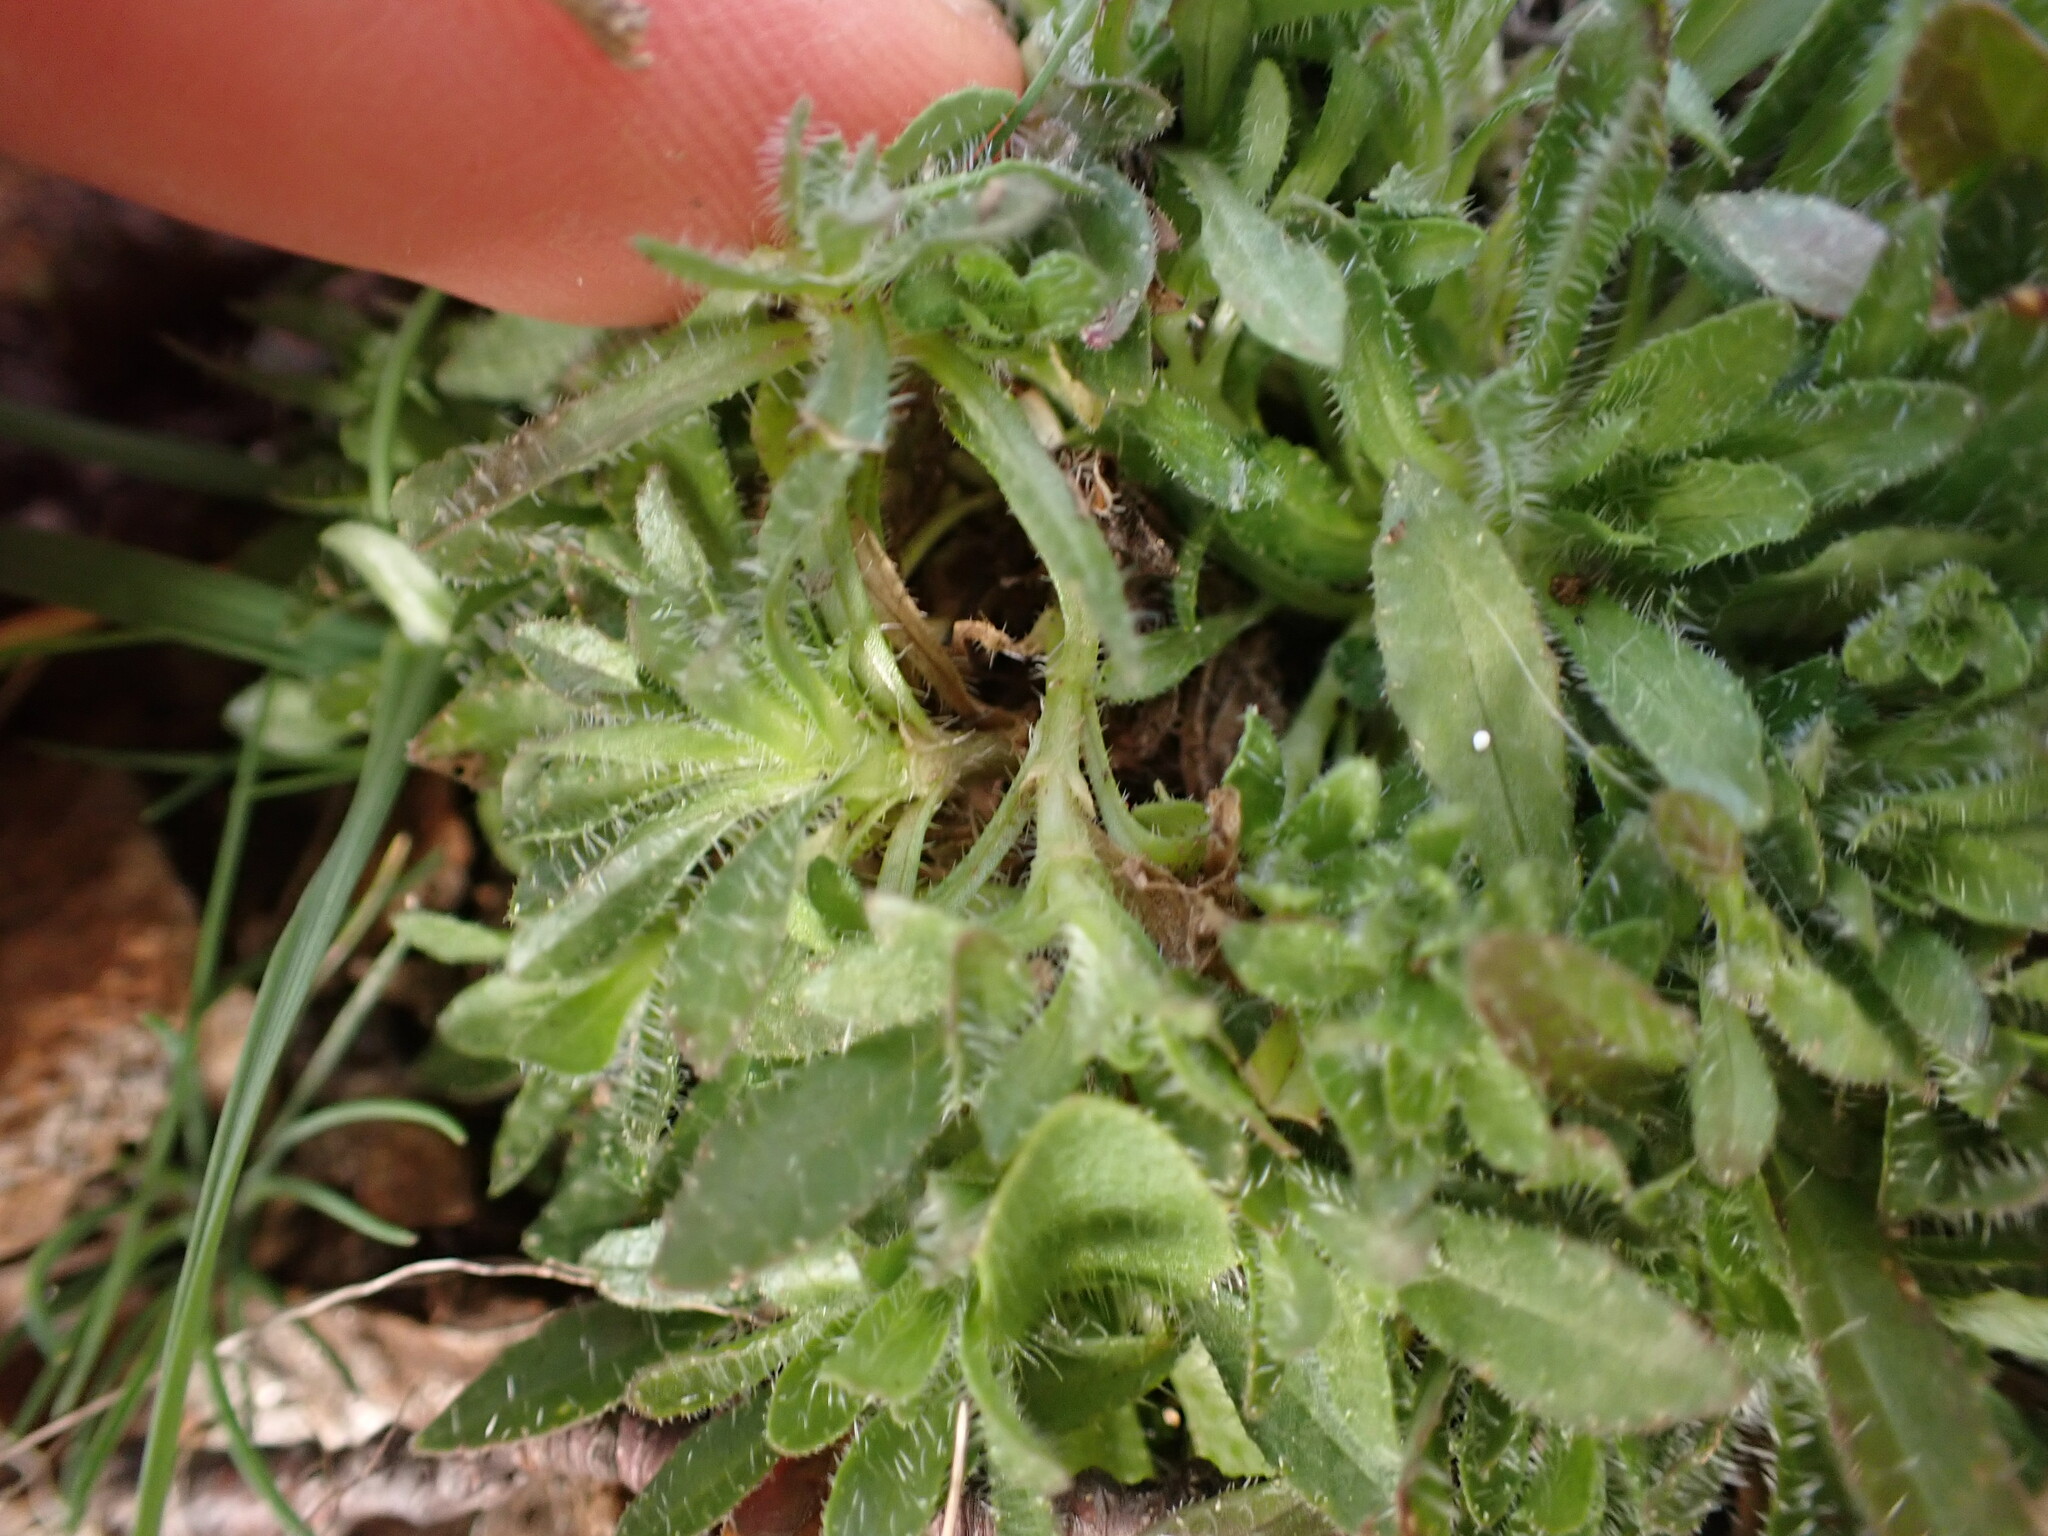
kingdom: Plantae
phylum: Tracheophyta
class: Magnoliopsida
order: Asterales
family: Campanulaceae
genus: Jasione
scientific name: Jasione montana
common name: Sheep's-bit
